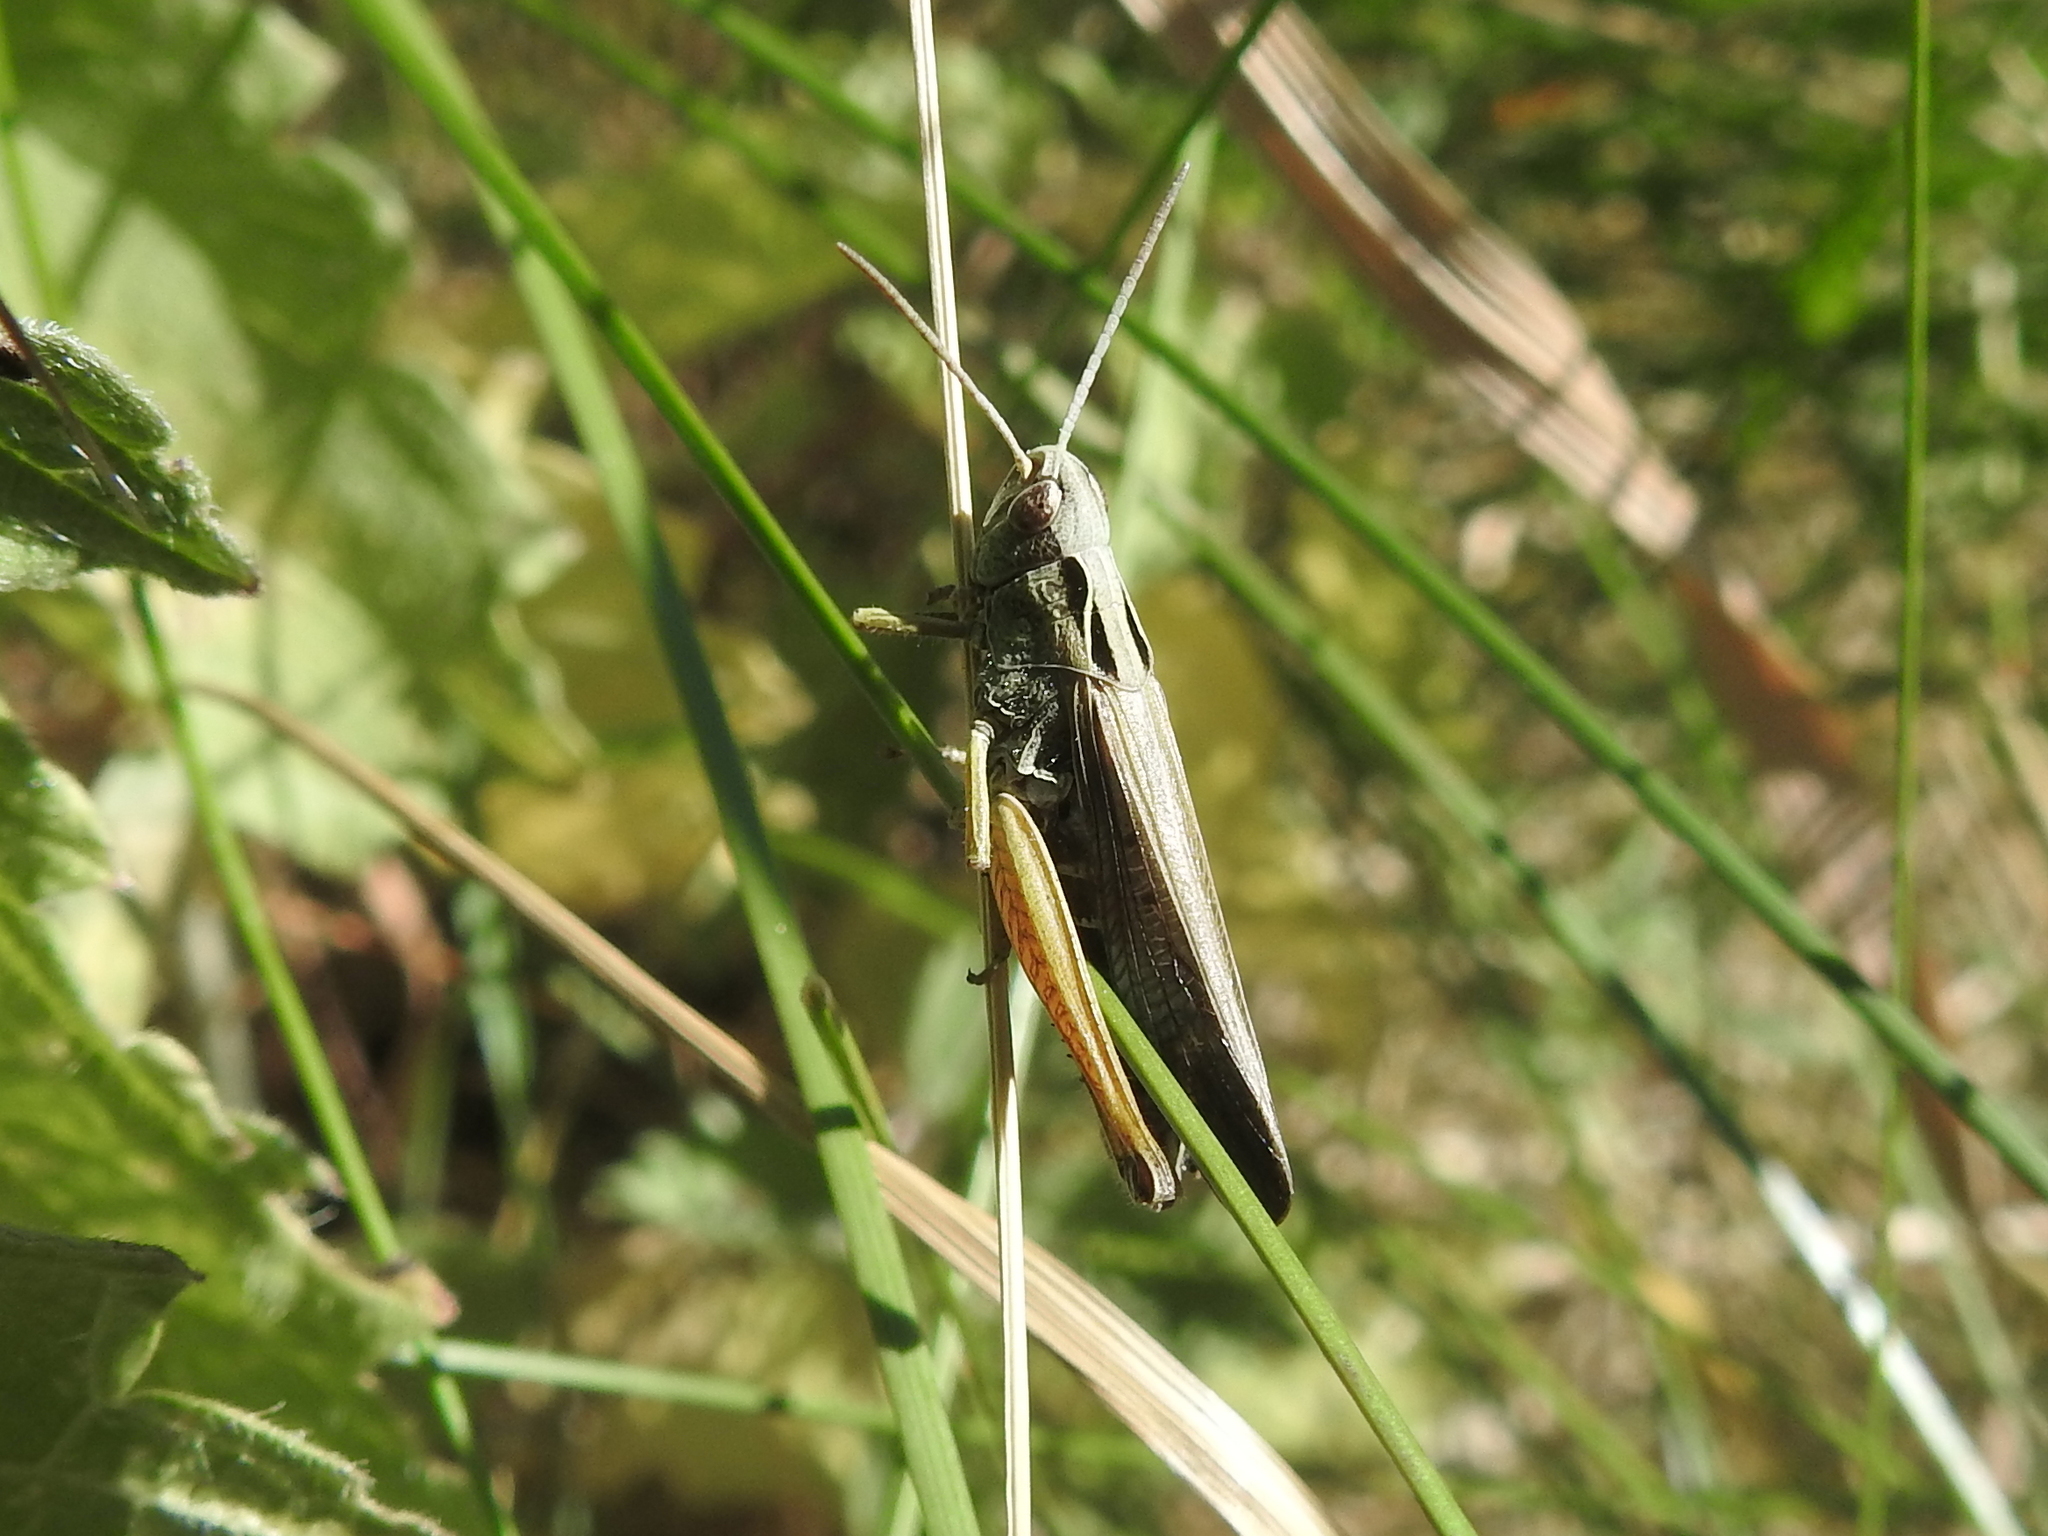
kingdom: Animalia
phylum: Arthropoda
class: Insecta
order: Orthoptera
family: Acrididae
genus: Omocestus
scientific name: Omocestus viridulus
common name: Common green grasshopper
